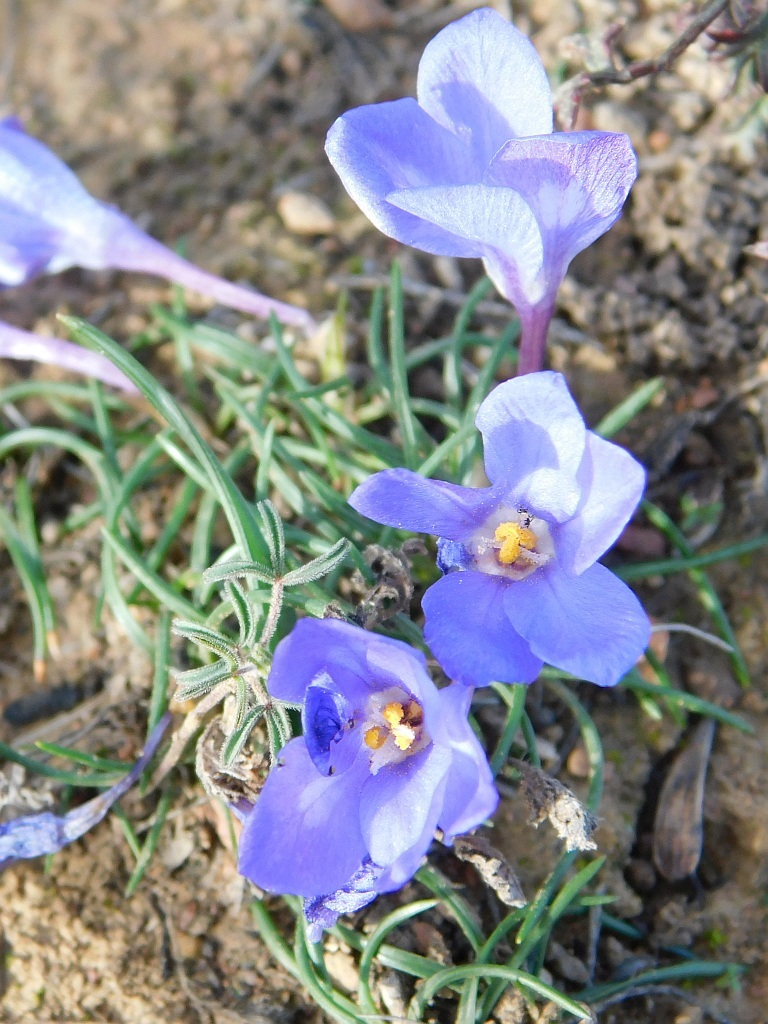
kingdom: Plantae
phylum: Tracheophyta
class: Liliopsida
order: Asparagales
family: Iridaceae
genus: Syringodea
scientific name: Syringodea longituba
